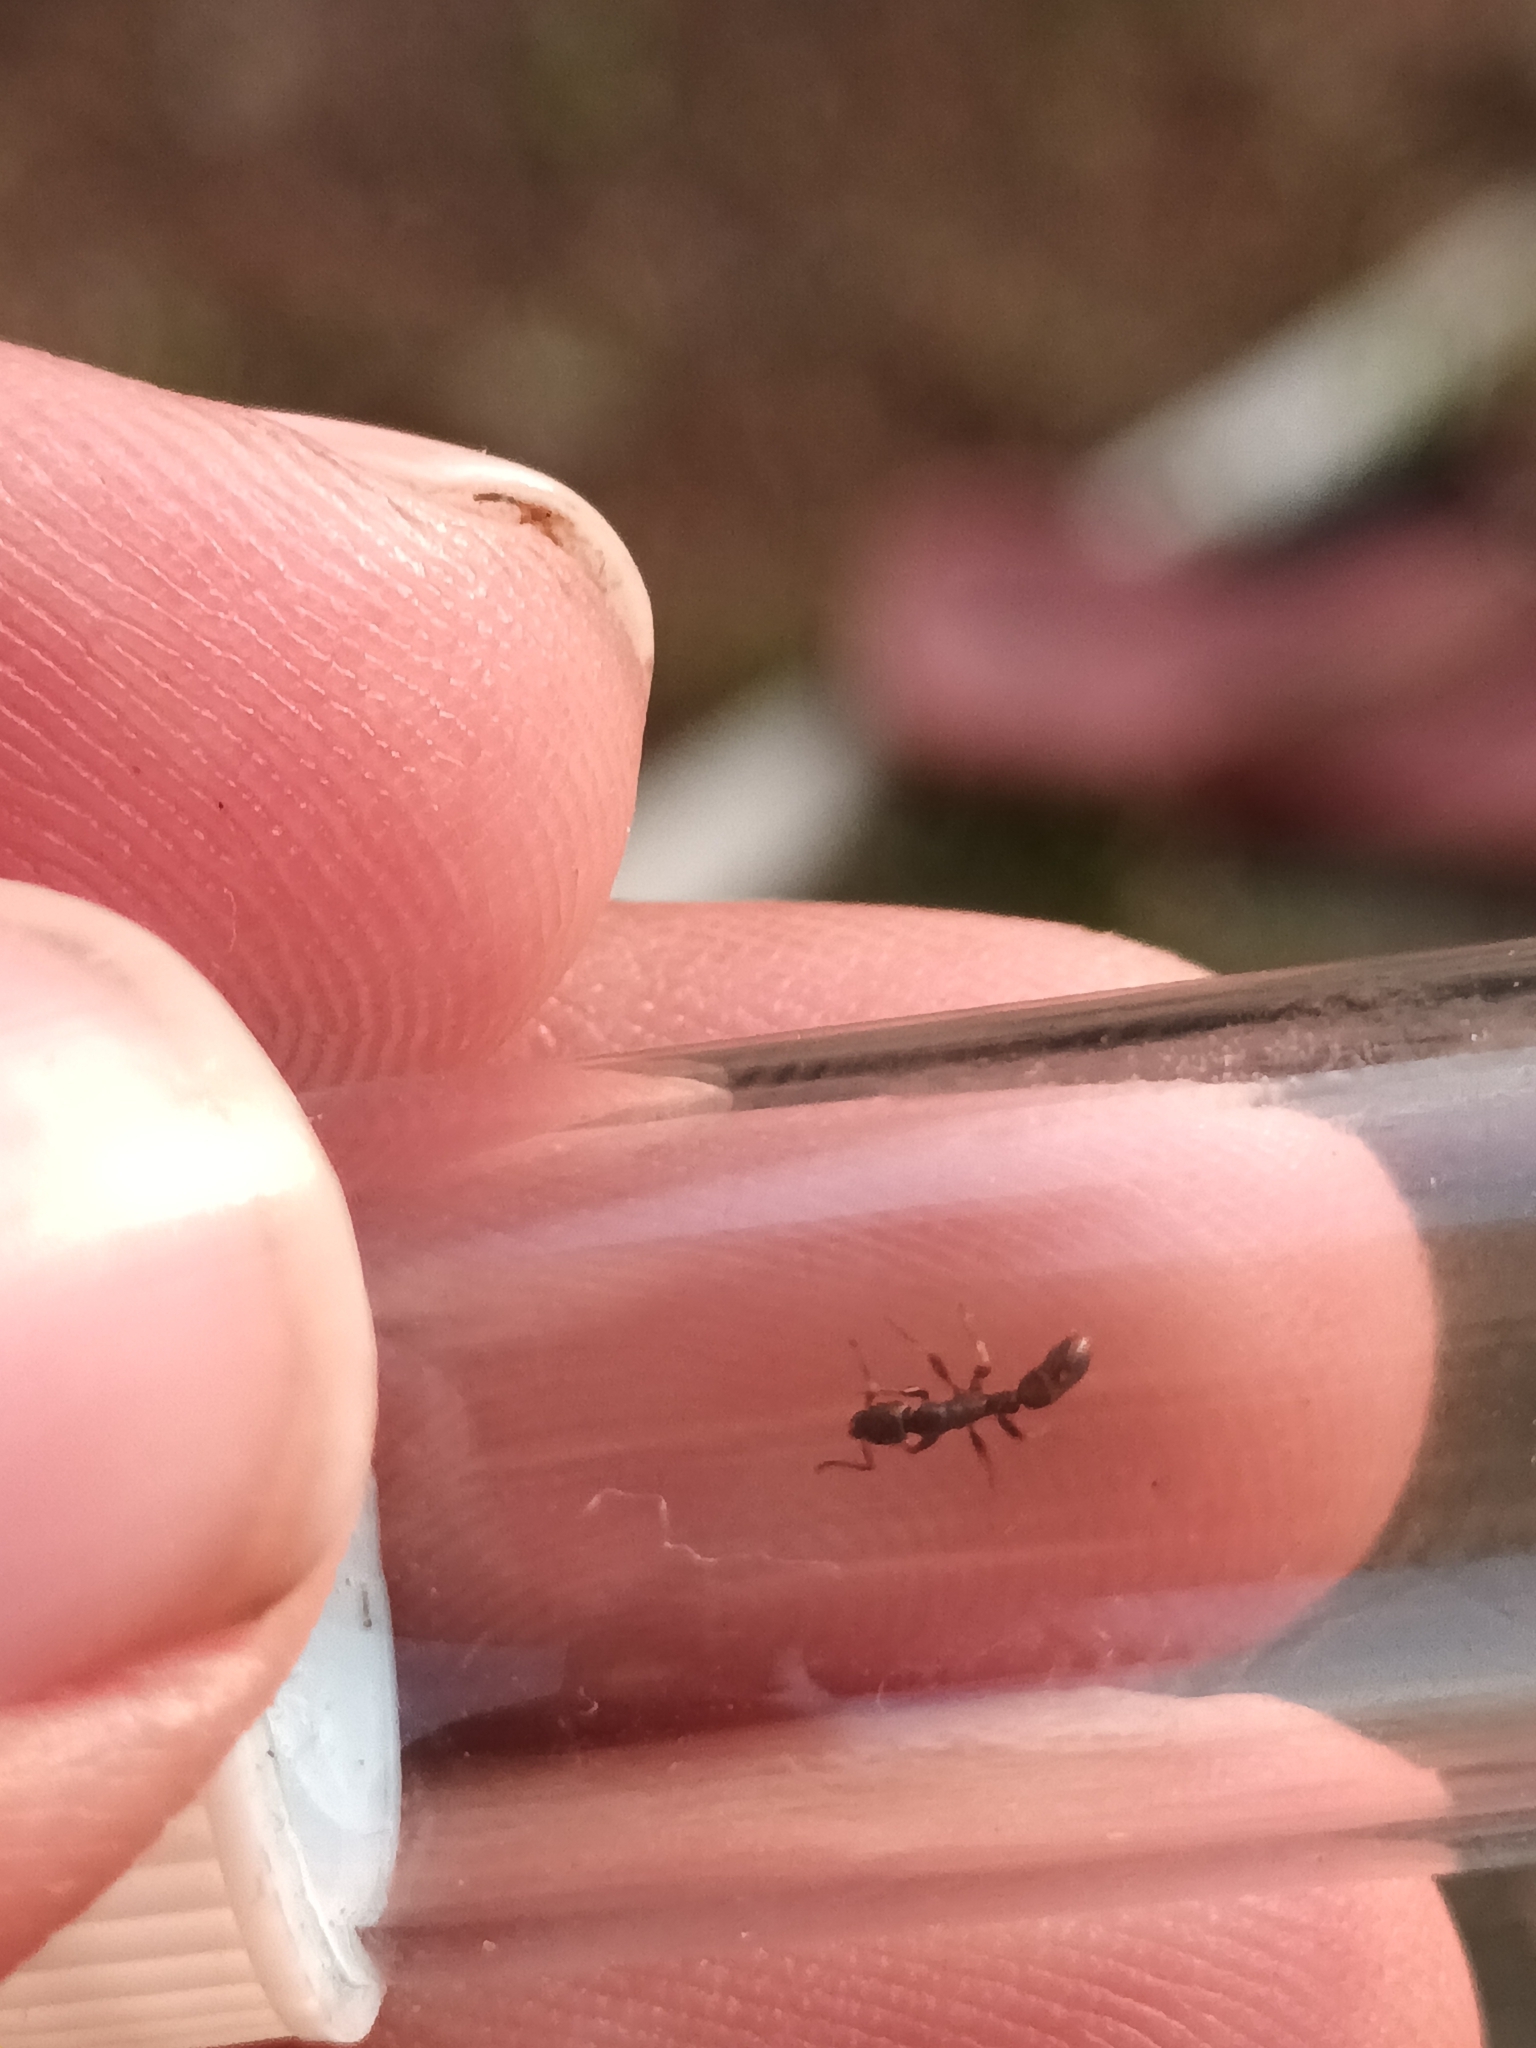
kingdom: Animalia
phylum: Arthropoda
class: Insecta
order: Hymenoptera
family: Formicidae
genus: Platythyrea
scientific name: Platythyrea parallela
